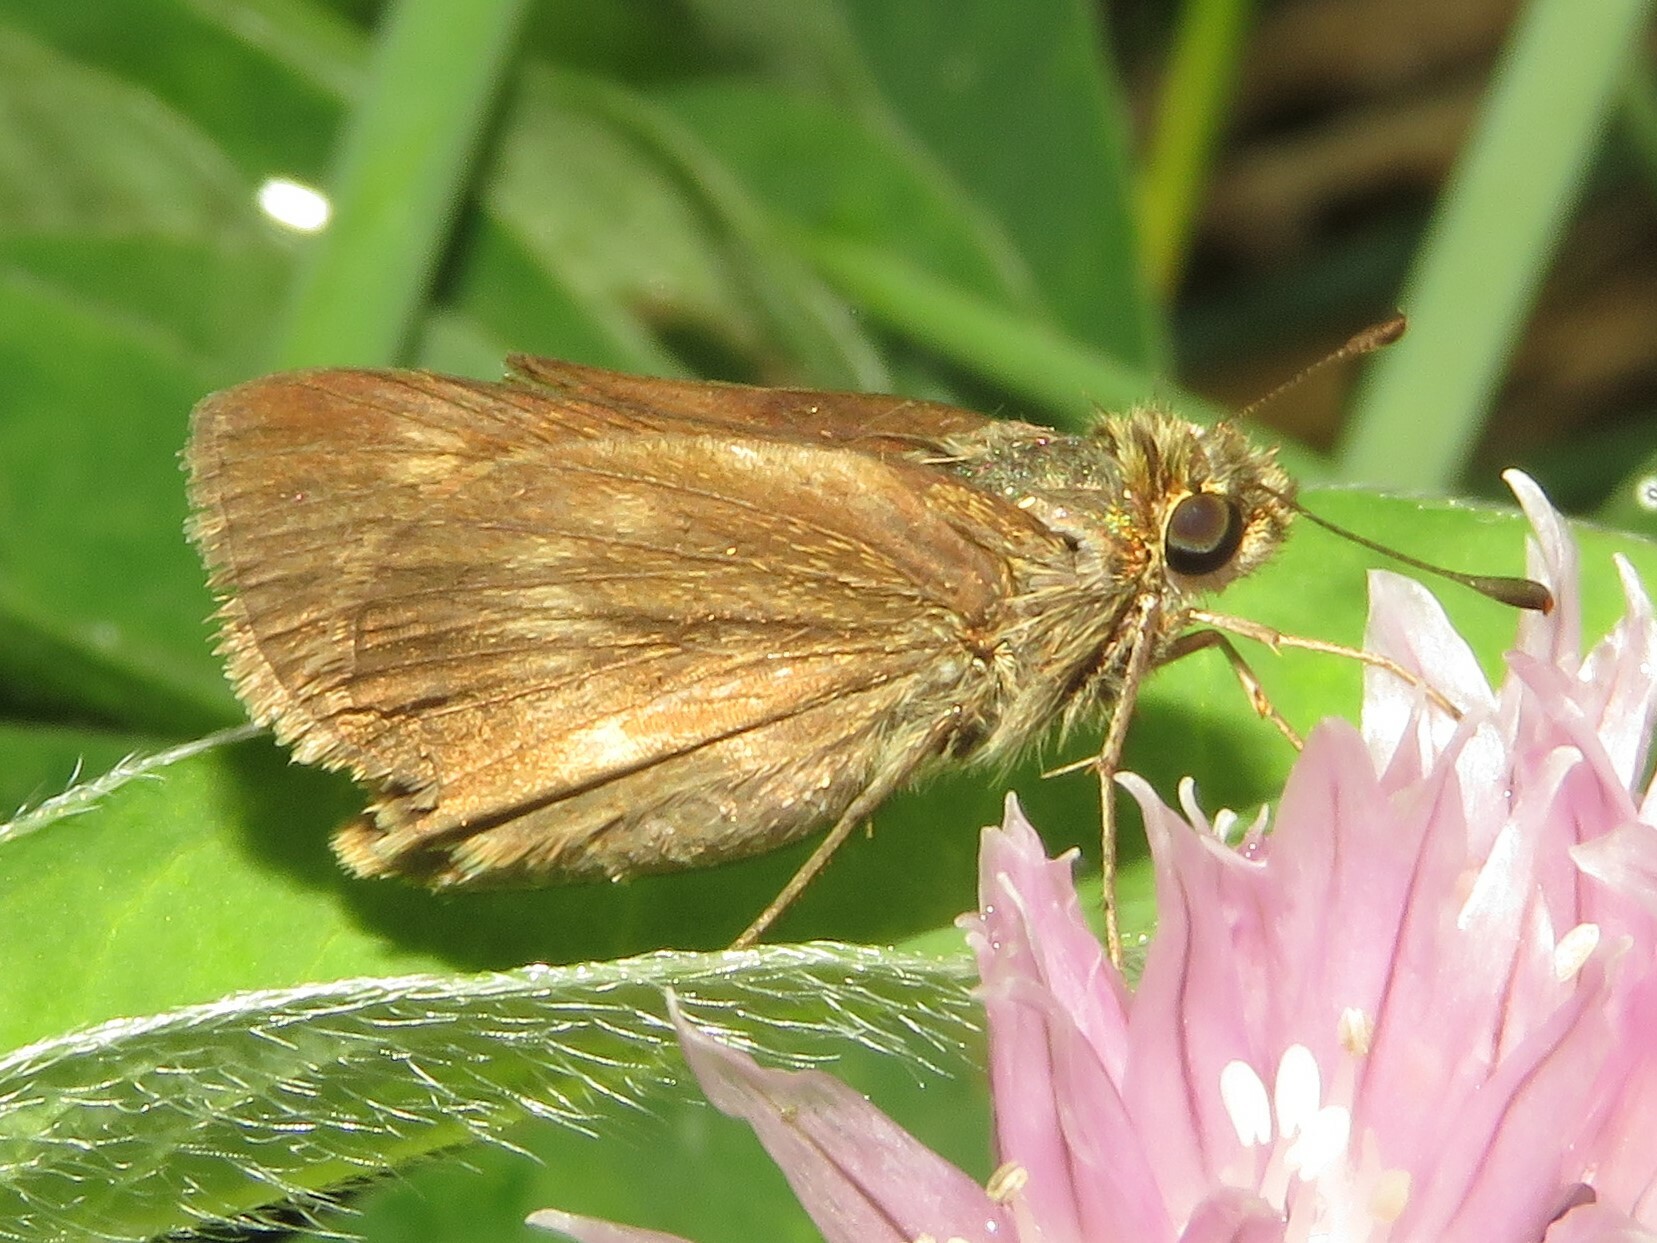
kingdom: Animalia
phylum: Arthropoda
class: Insecta
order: Lepidoptera
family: Hesperiidae
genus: Polites
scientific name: Polites egeremet
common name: Northern broken-dash
